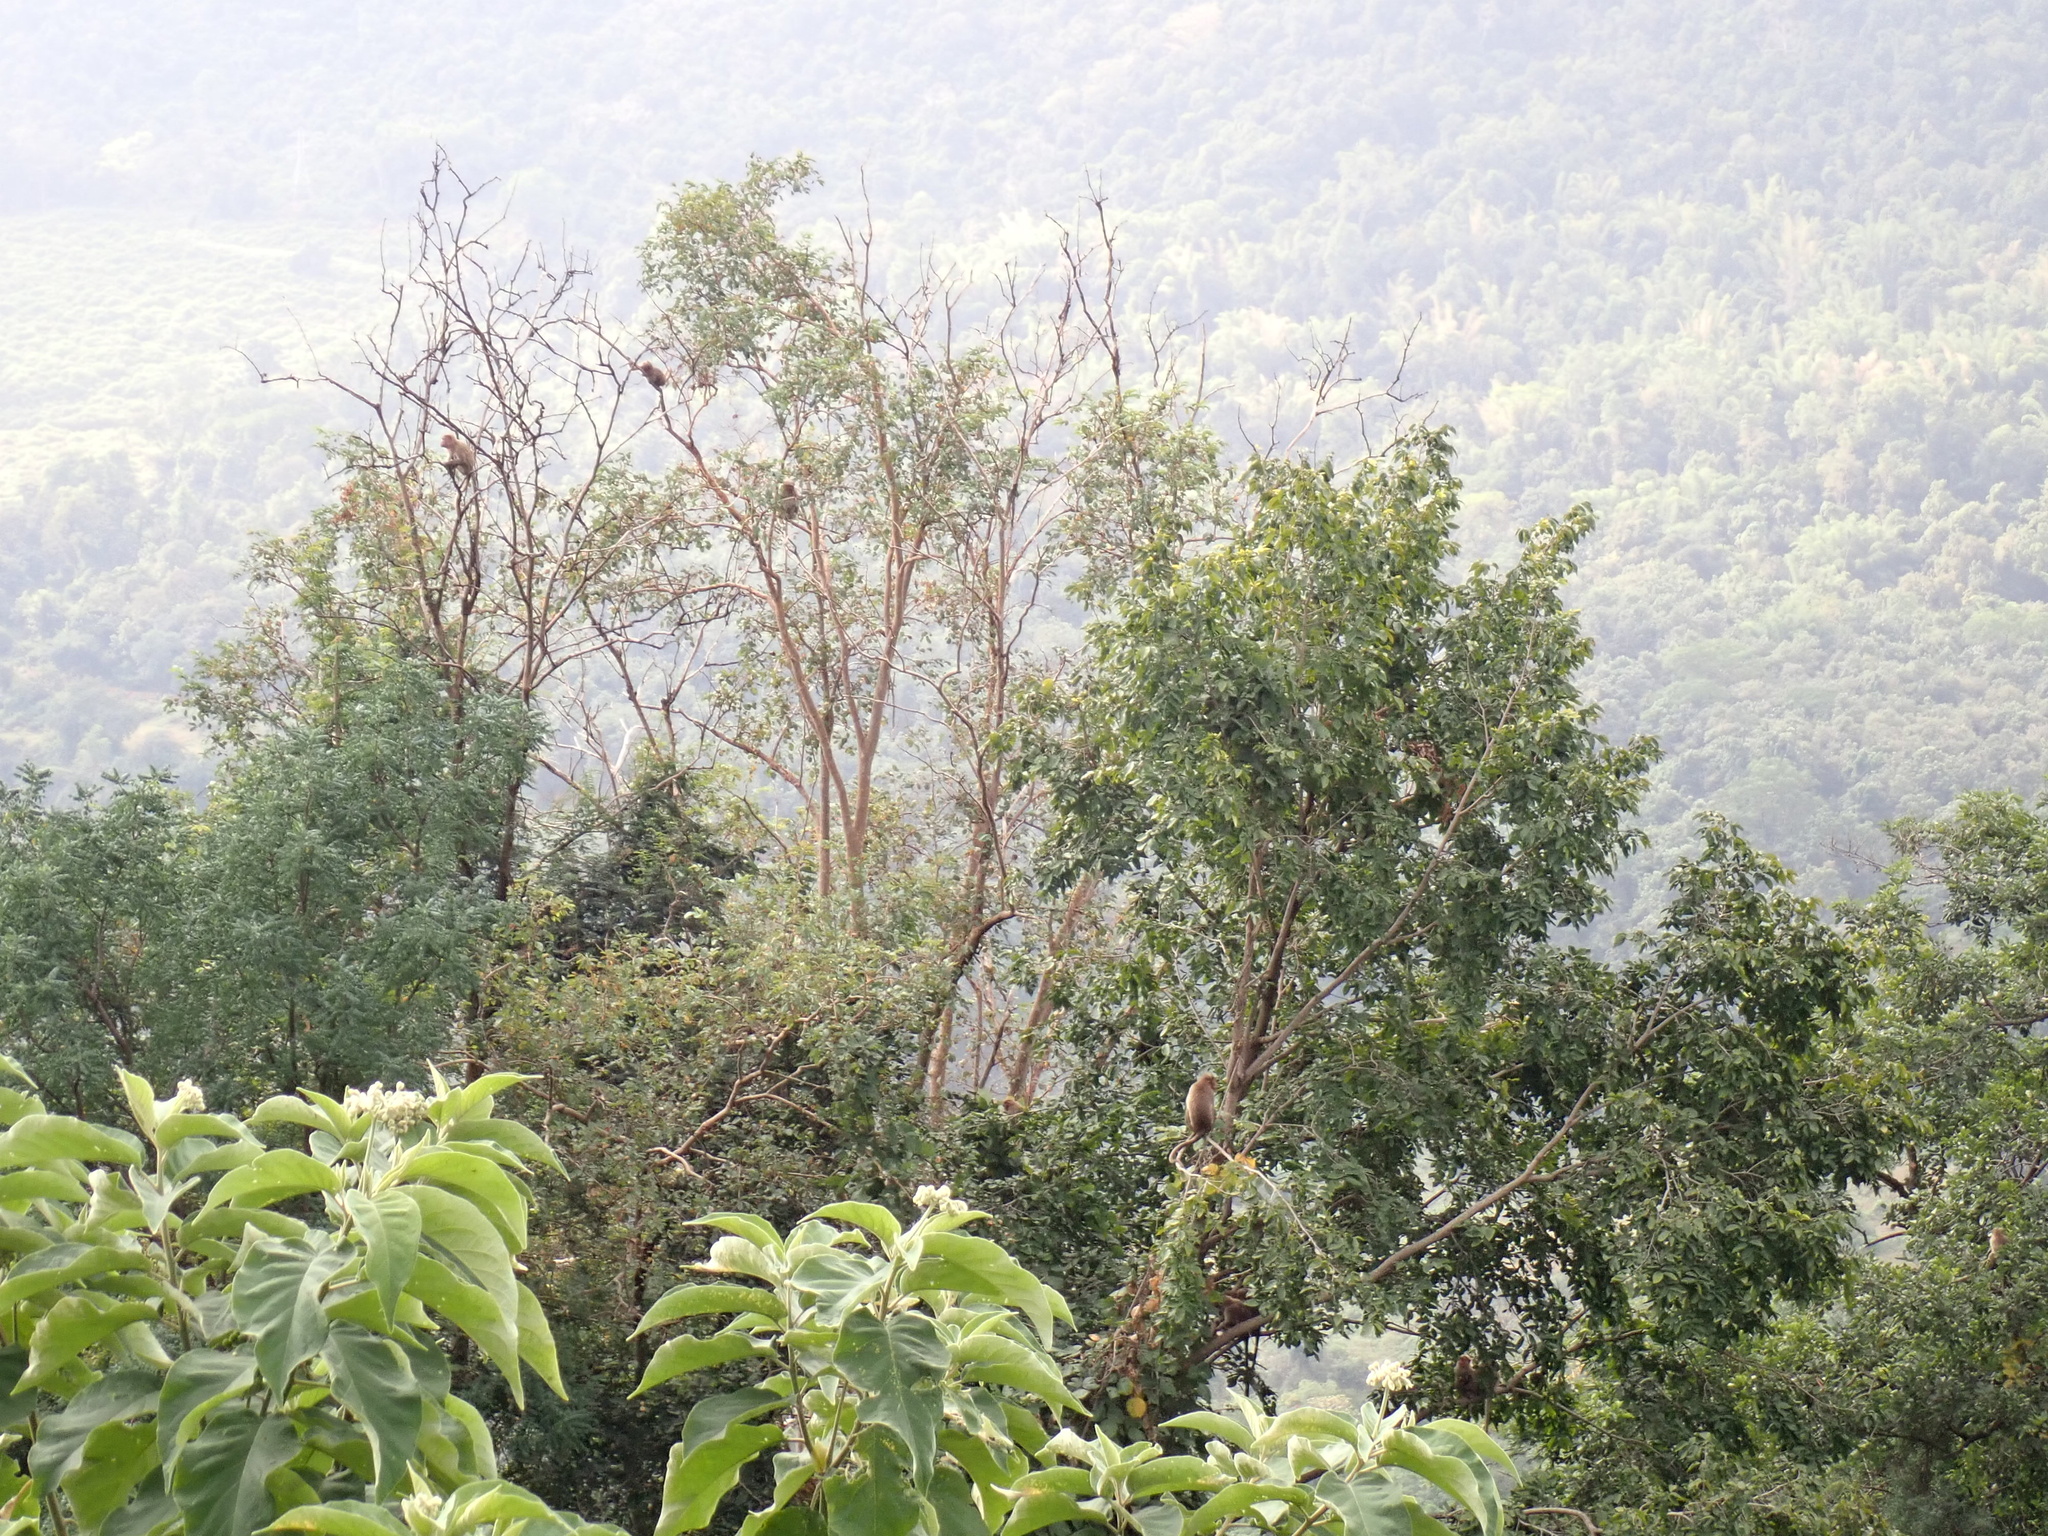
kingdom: Animalia
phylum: Chordata
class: Mammalia
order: Primates
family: Cercopithecidae
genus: Macaca
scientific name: Macaca radiata
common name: Bonnet macaque
